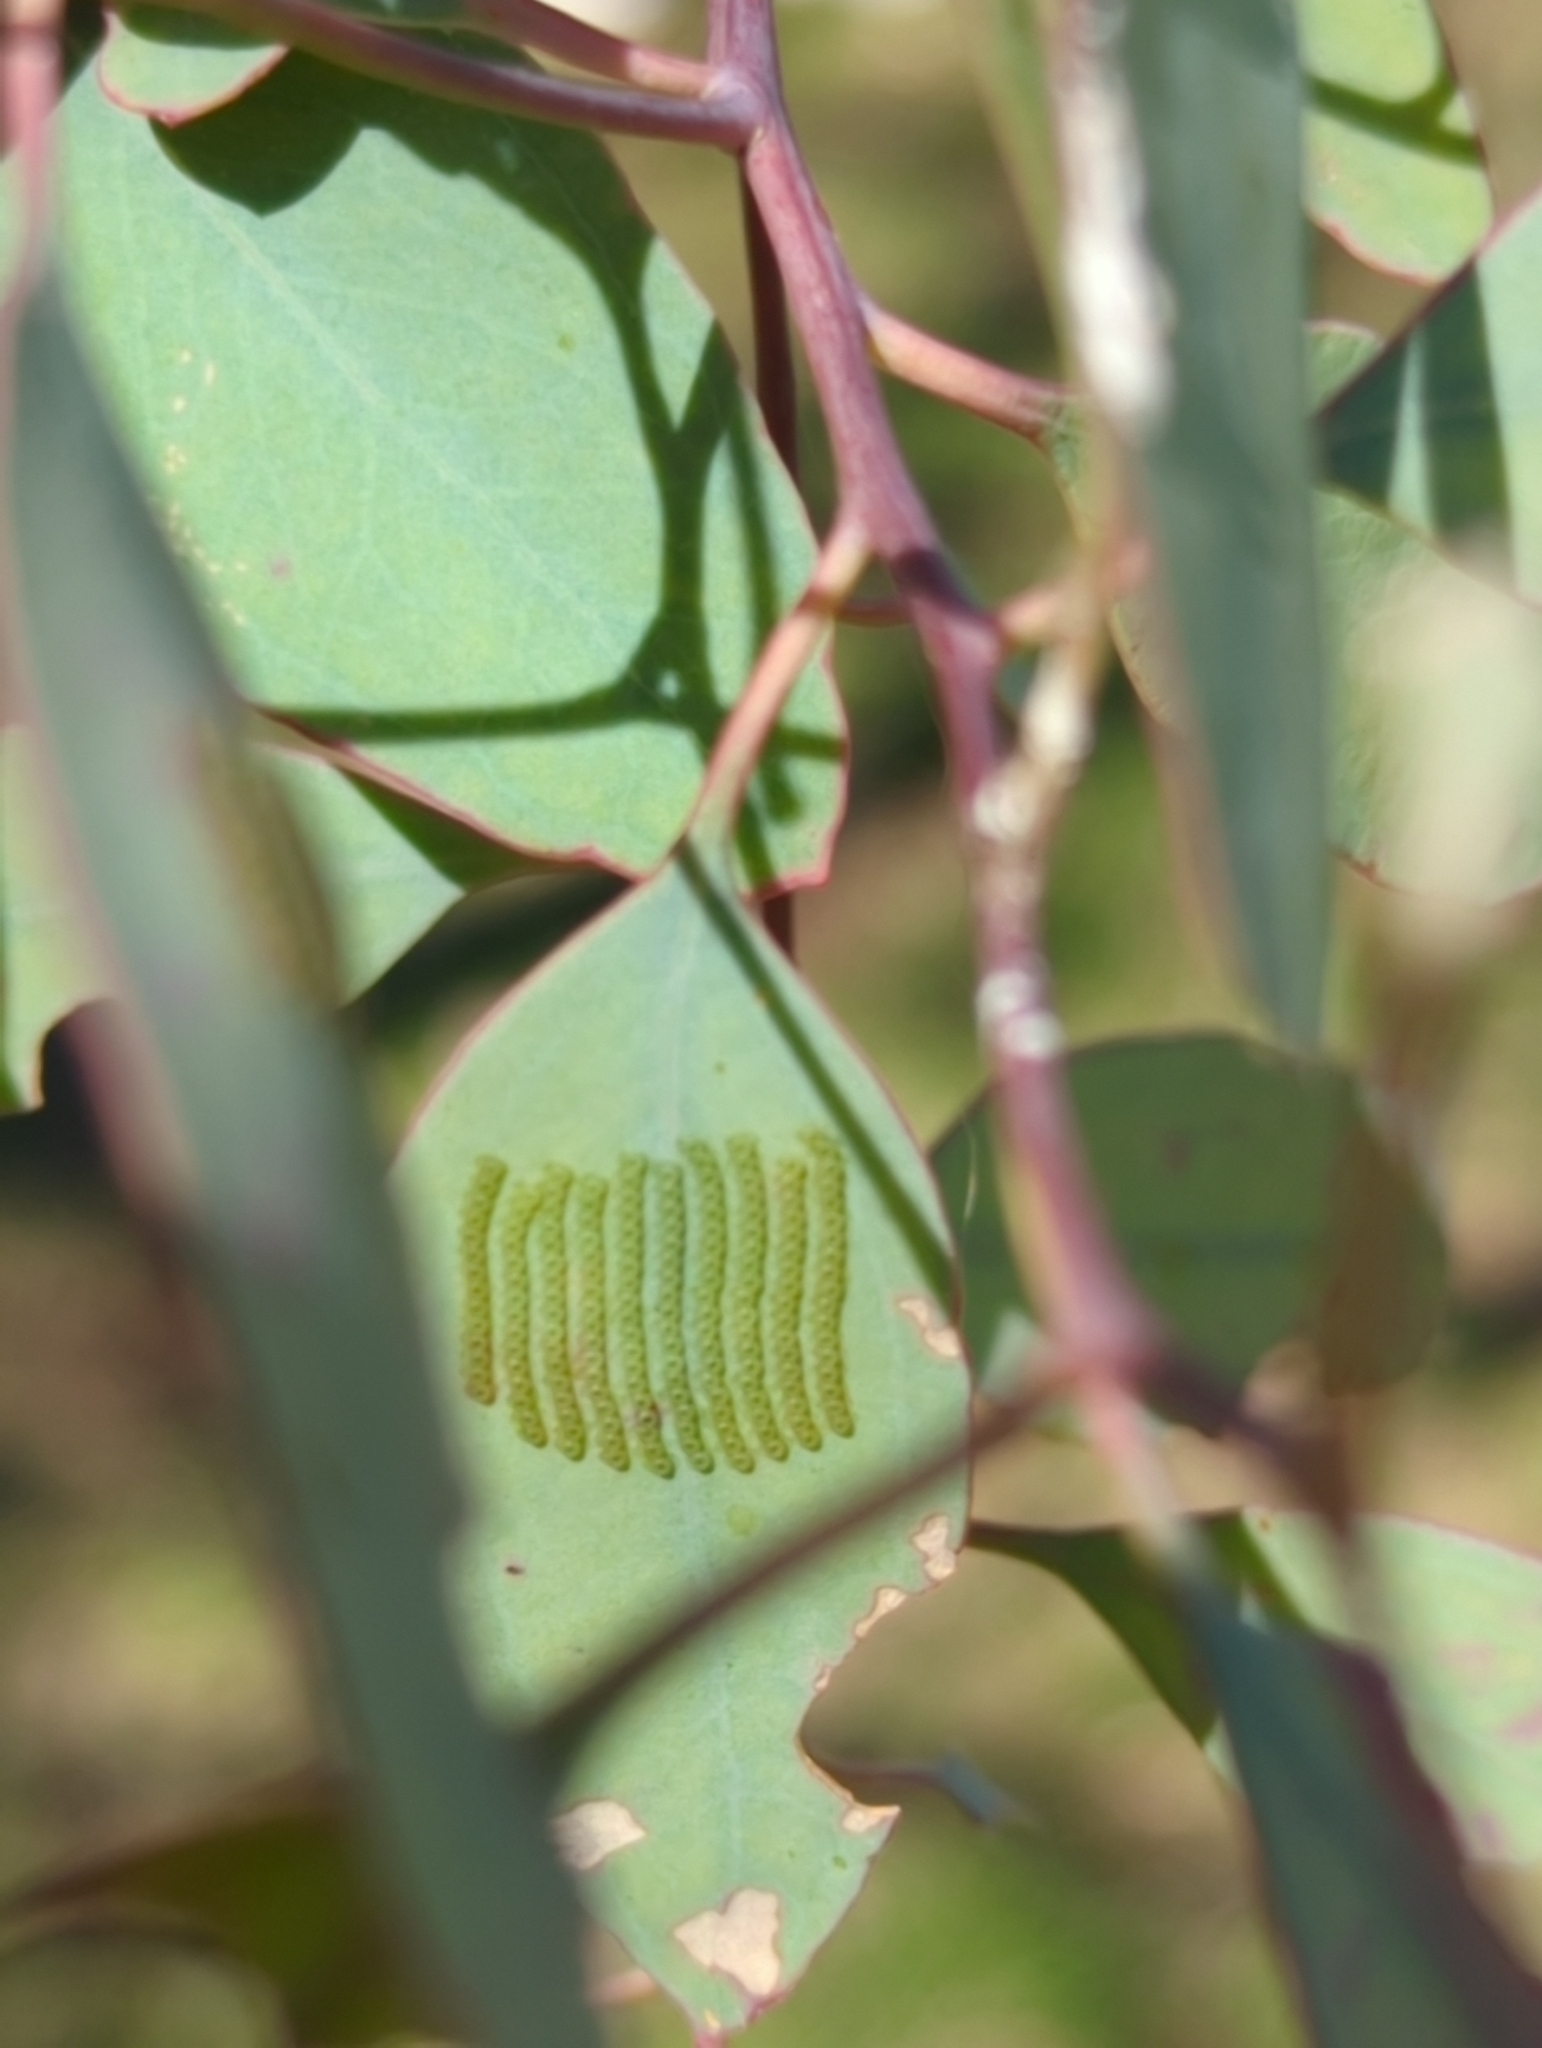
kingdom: Animalia
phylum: Arthropoda
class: Insecta
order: Lepidoptera
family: Nolidae
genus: Uraba
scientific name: Uraba lugens
